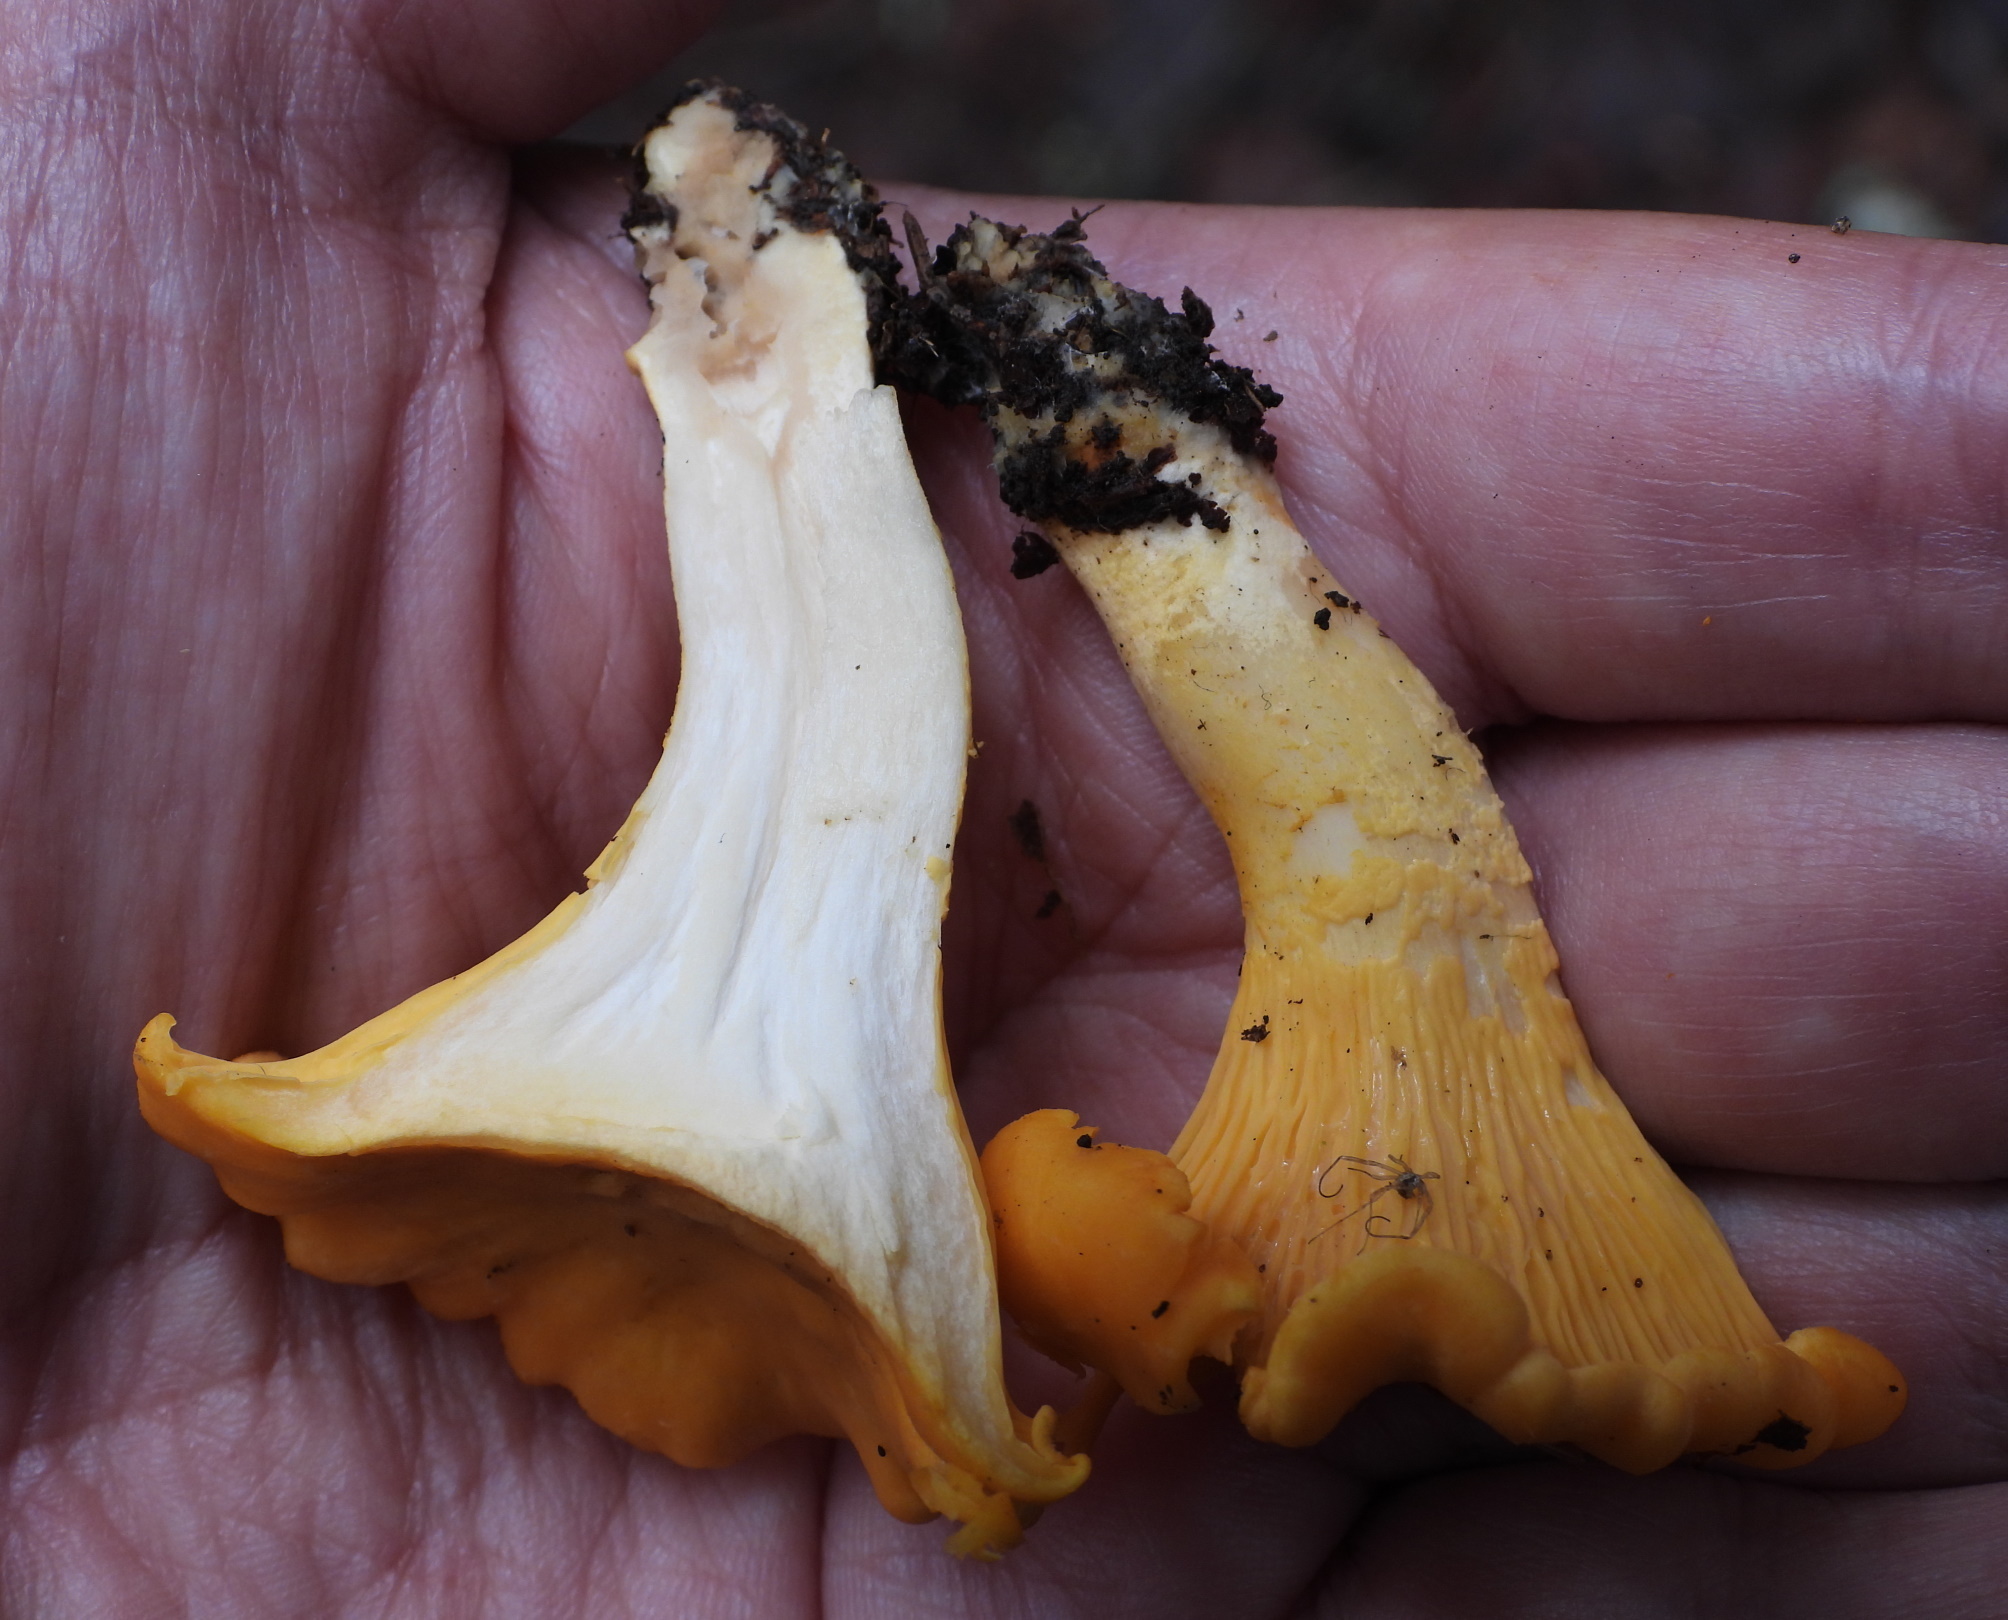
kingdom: Fungi
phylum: Basidiomycota
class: Agaricomycetes
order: Cantharellales
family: Hydnaceae
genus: Cantharellus
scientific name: Cantharellus cibarius
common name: Chanterelle
